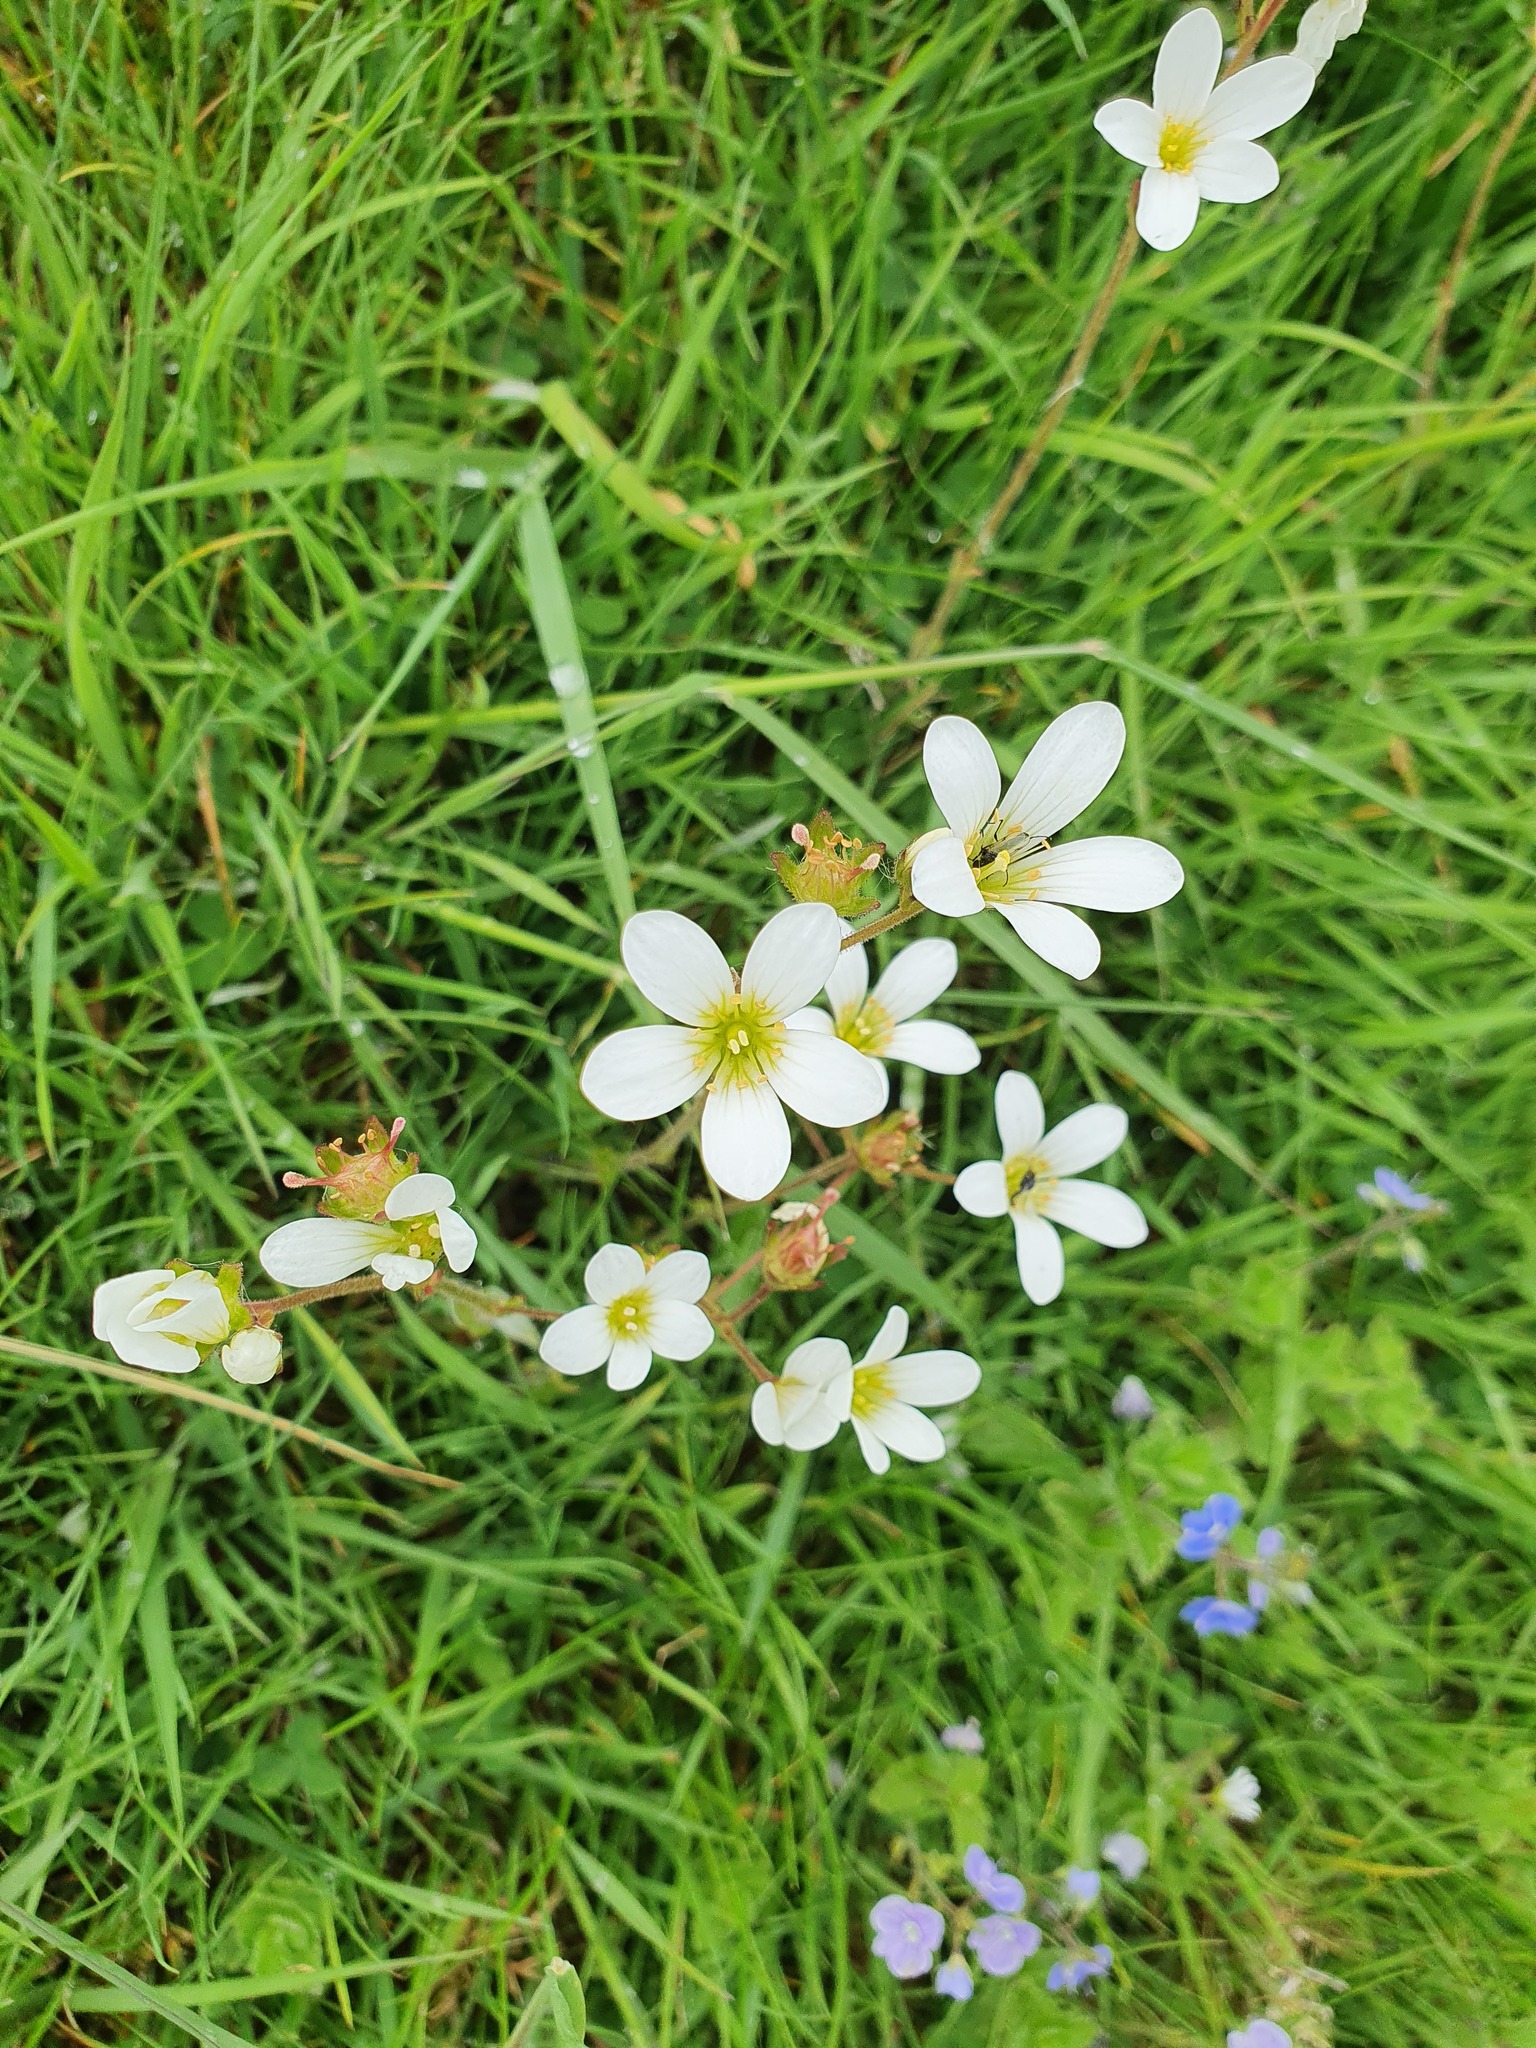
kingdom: Plantae
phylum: Tracheophyta
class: Magnoliopsida
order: Saxifragales
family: Saxifragaceae
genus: Saxifraga
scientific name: Saxifraga granulata
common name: Meadow saxifrage
